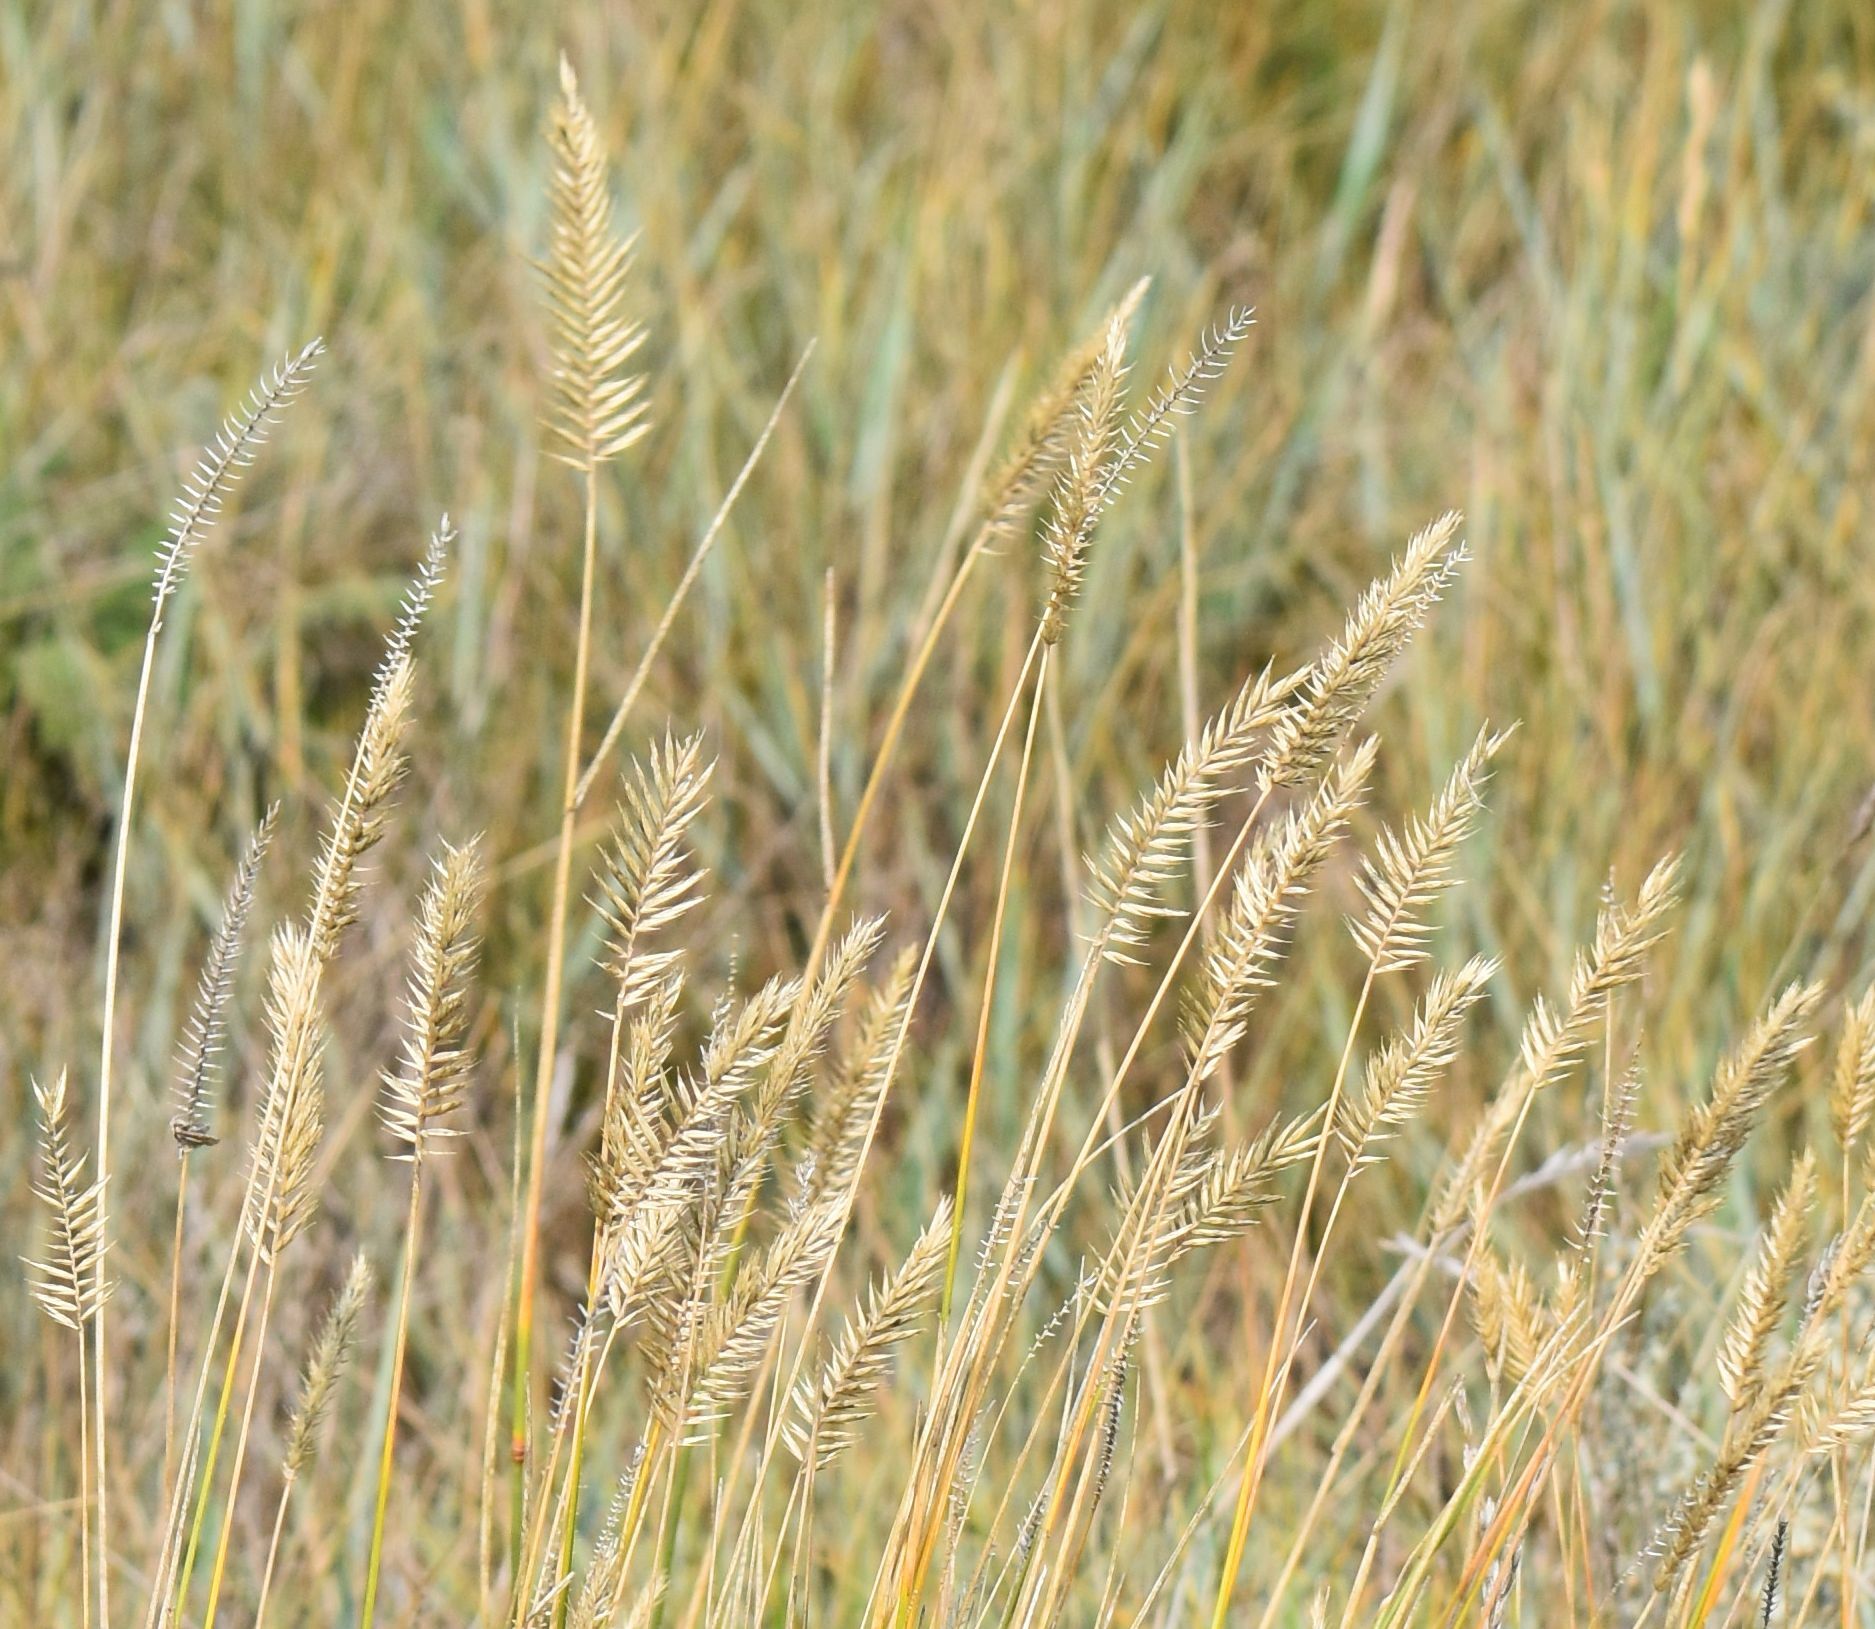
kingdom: Plantae
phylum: Tracheophyta
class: Liliopsida
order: Poales
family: Poaceae
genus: Agropyron
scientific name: Agropyron cristatum
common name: Crested wheatgrass
